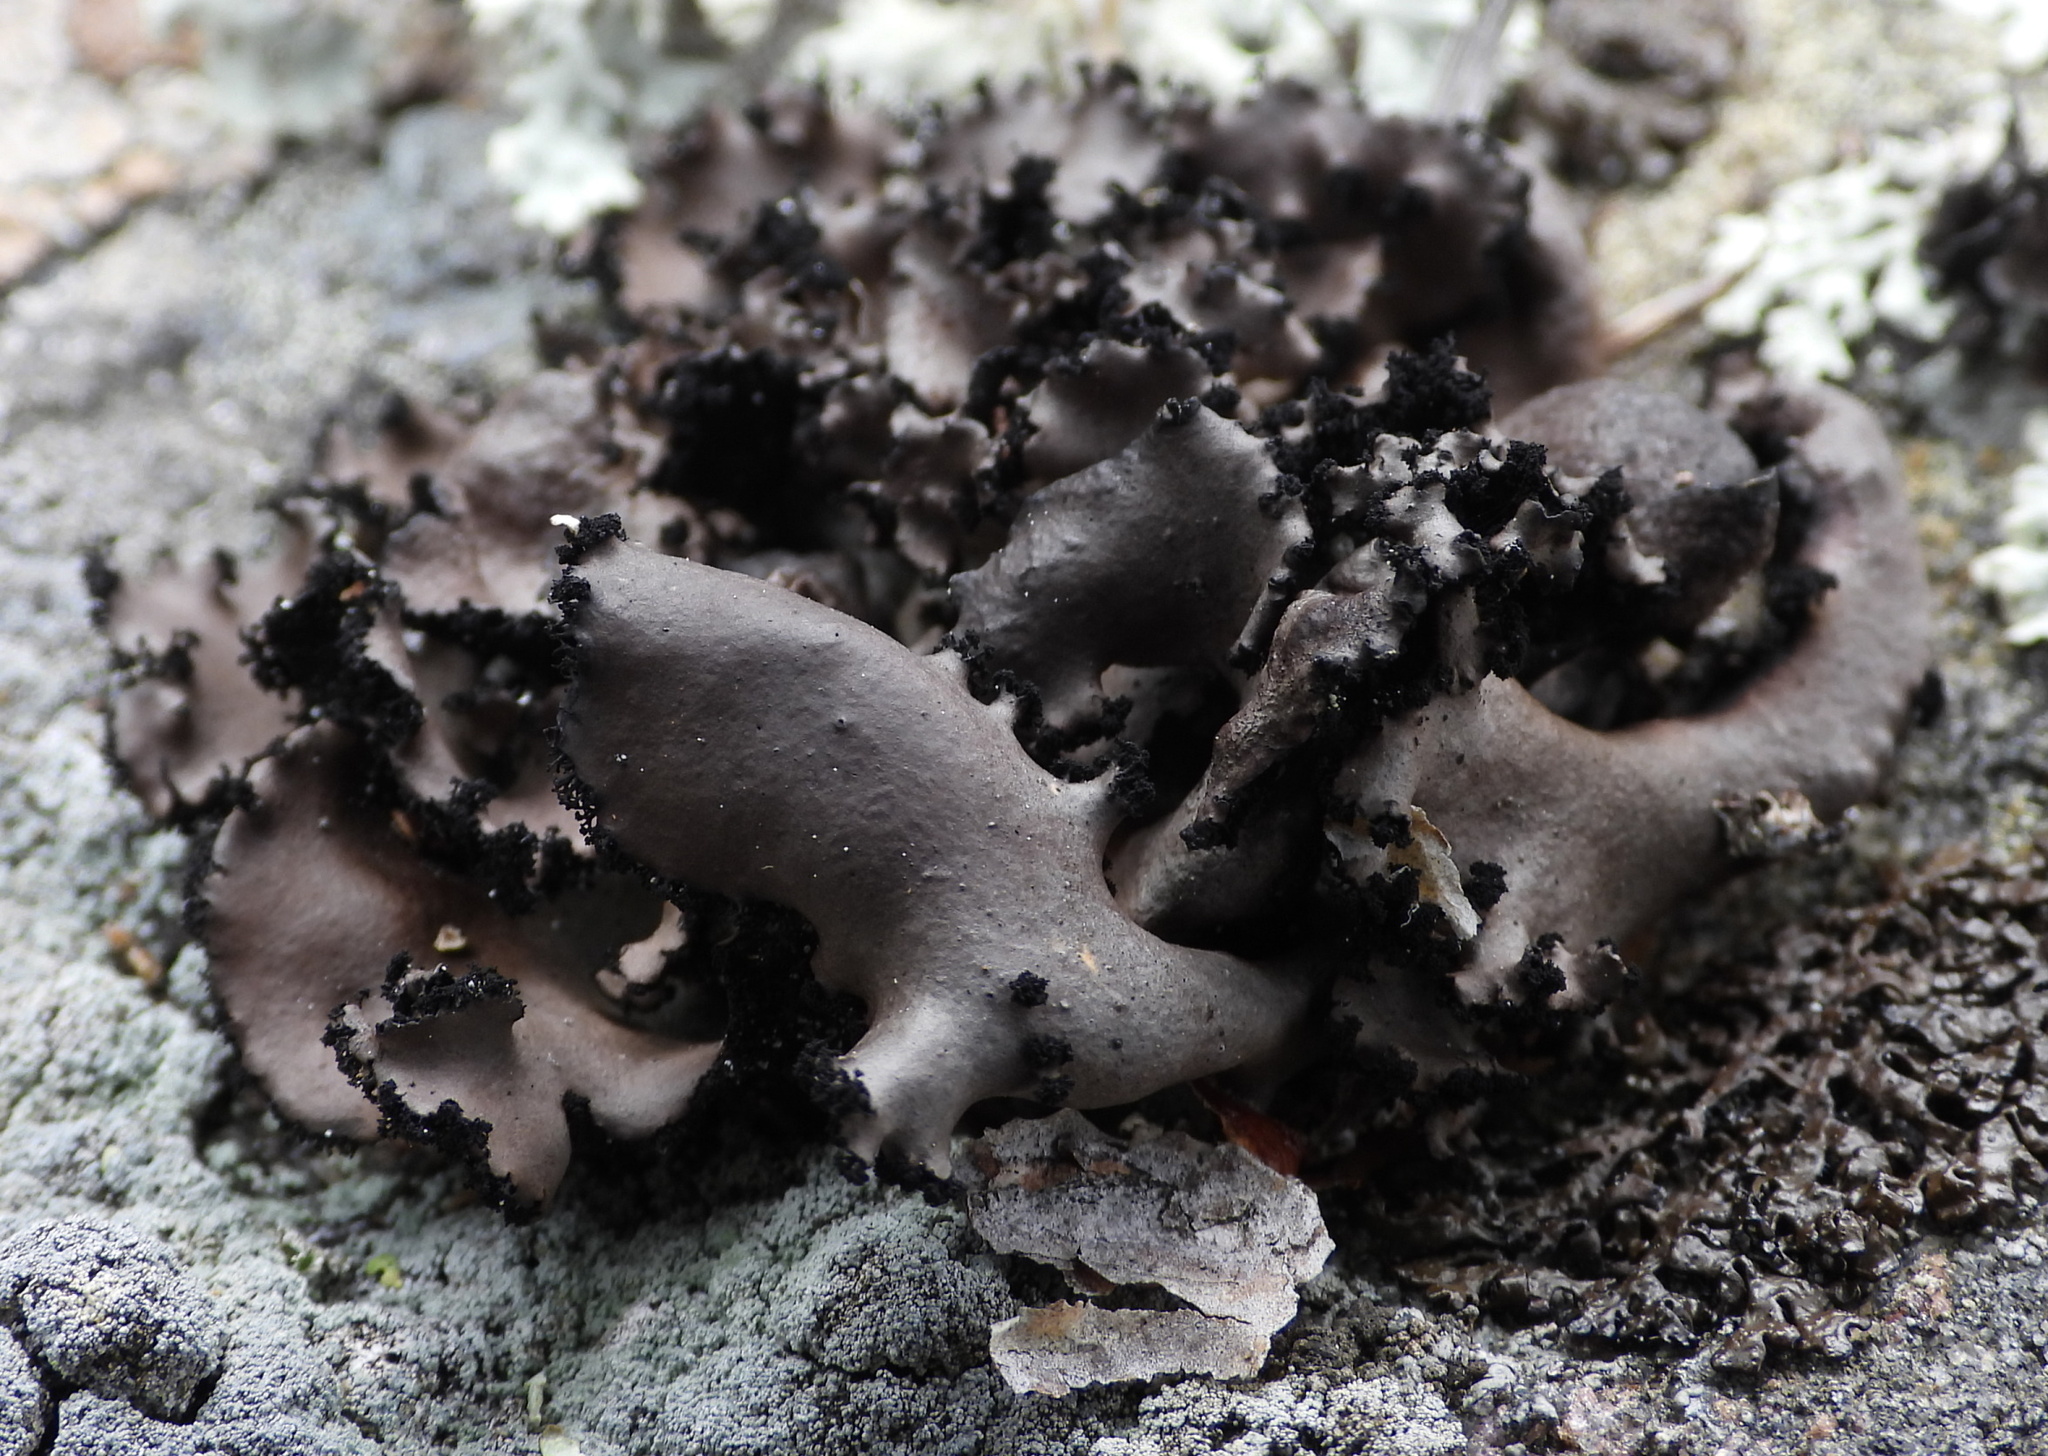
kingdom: Fungi
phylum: Ascomycota
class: Lecanoromycetes
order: Umbilicariales
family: Umbilicariaceae
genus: Umbilicaria
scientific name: Umbilicaria polyrrhiza
